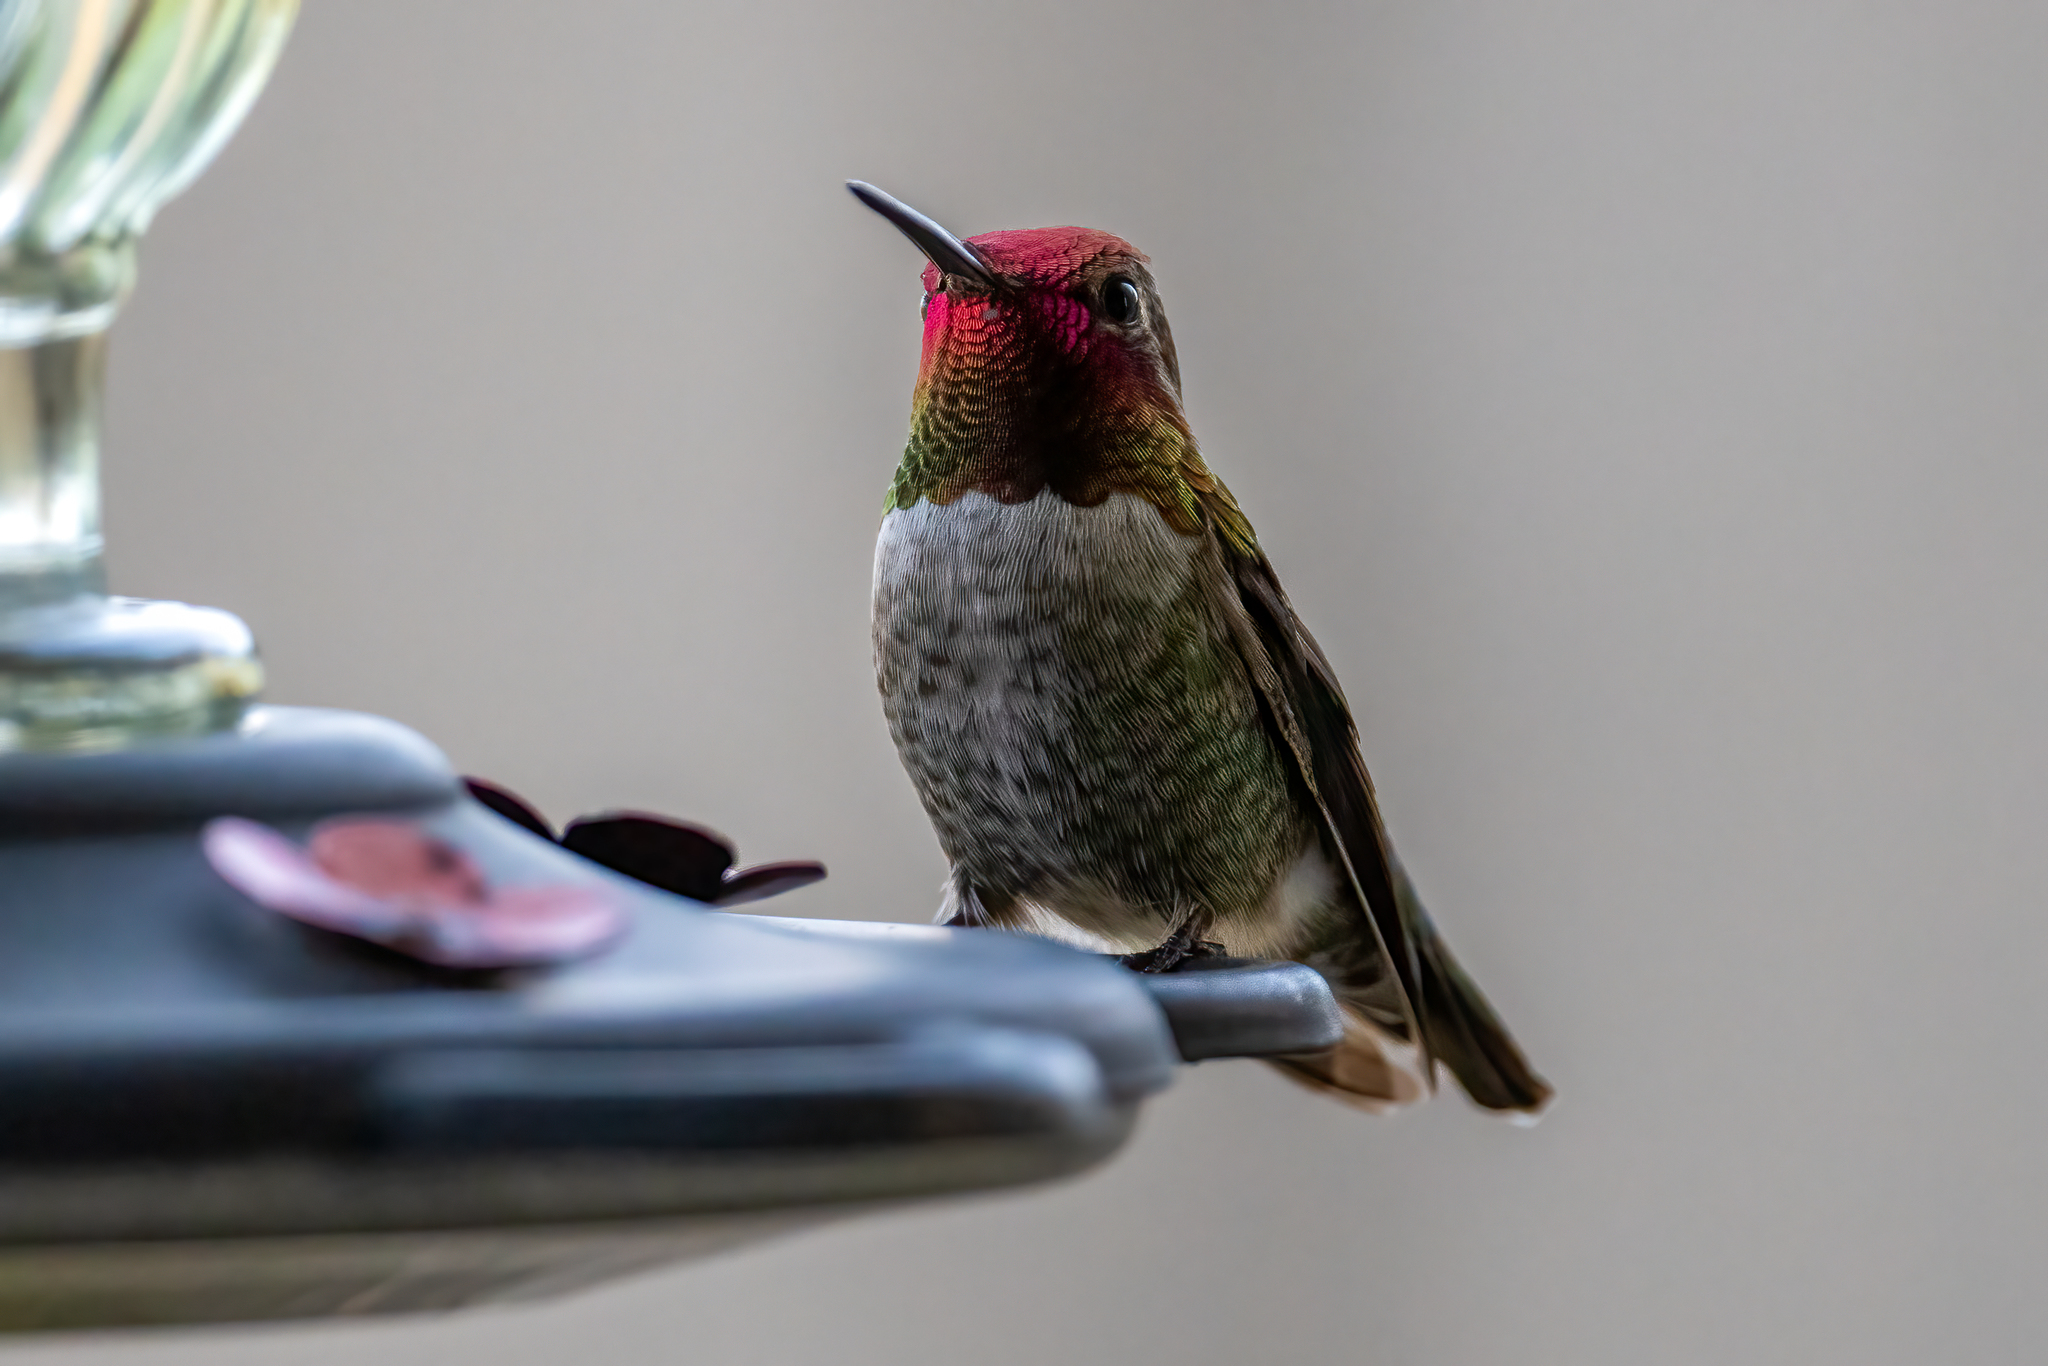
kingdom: Animalia
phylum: Chordata
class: Aves
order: Apodiformes
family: Trochilidae
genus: Calypte
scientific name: Calypte anna
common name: Anna's hummingbird
